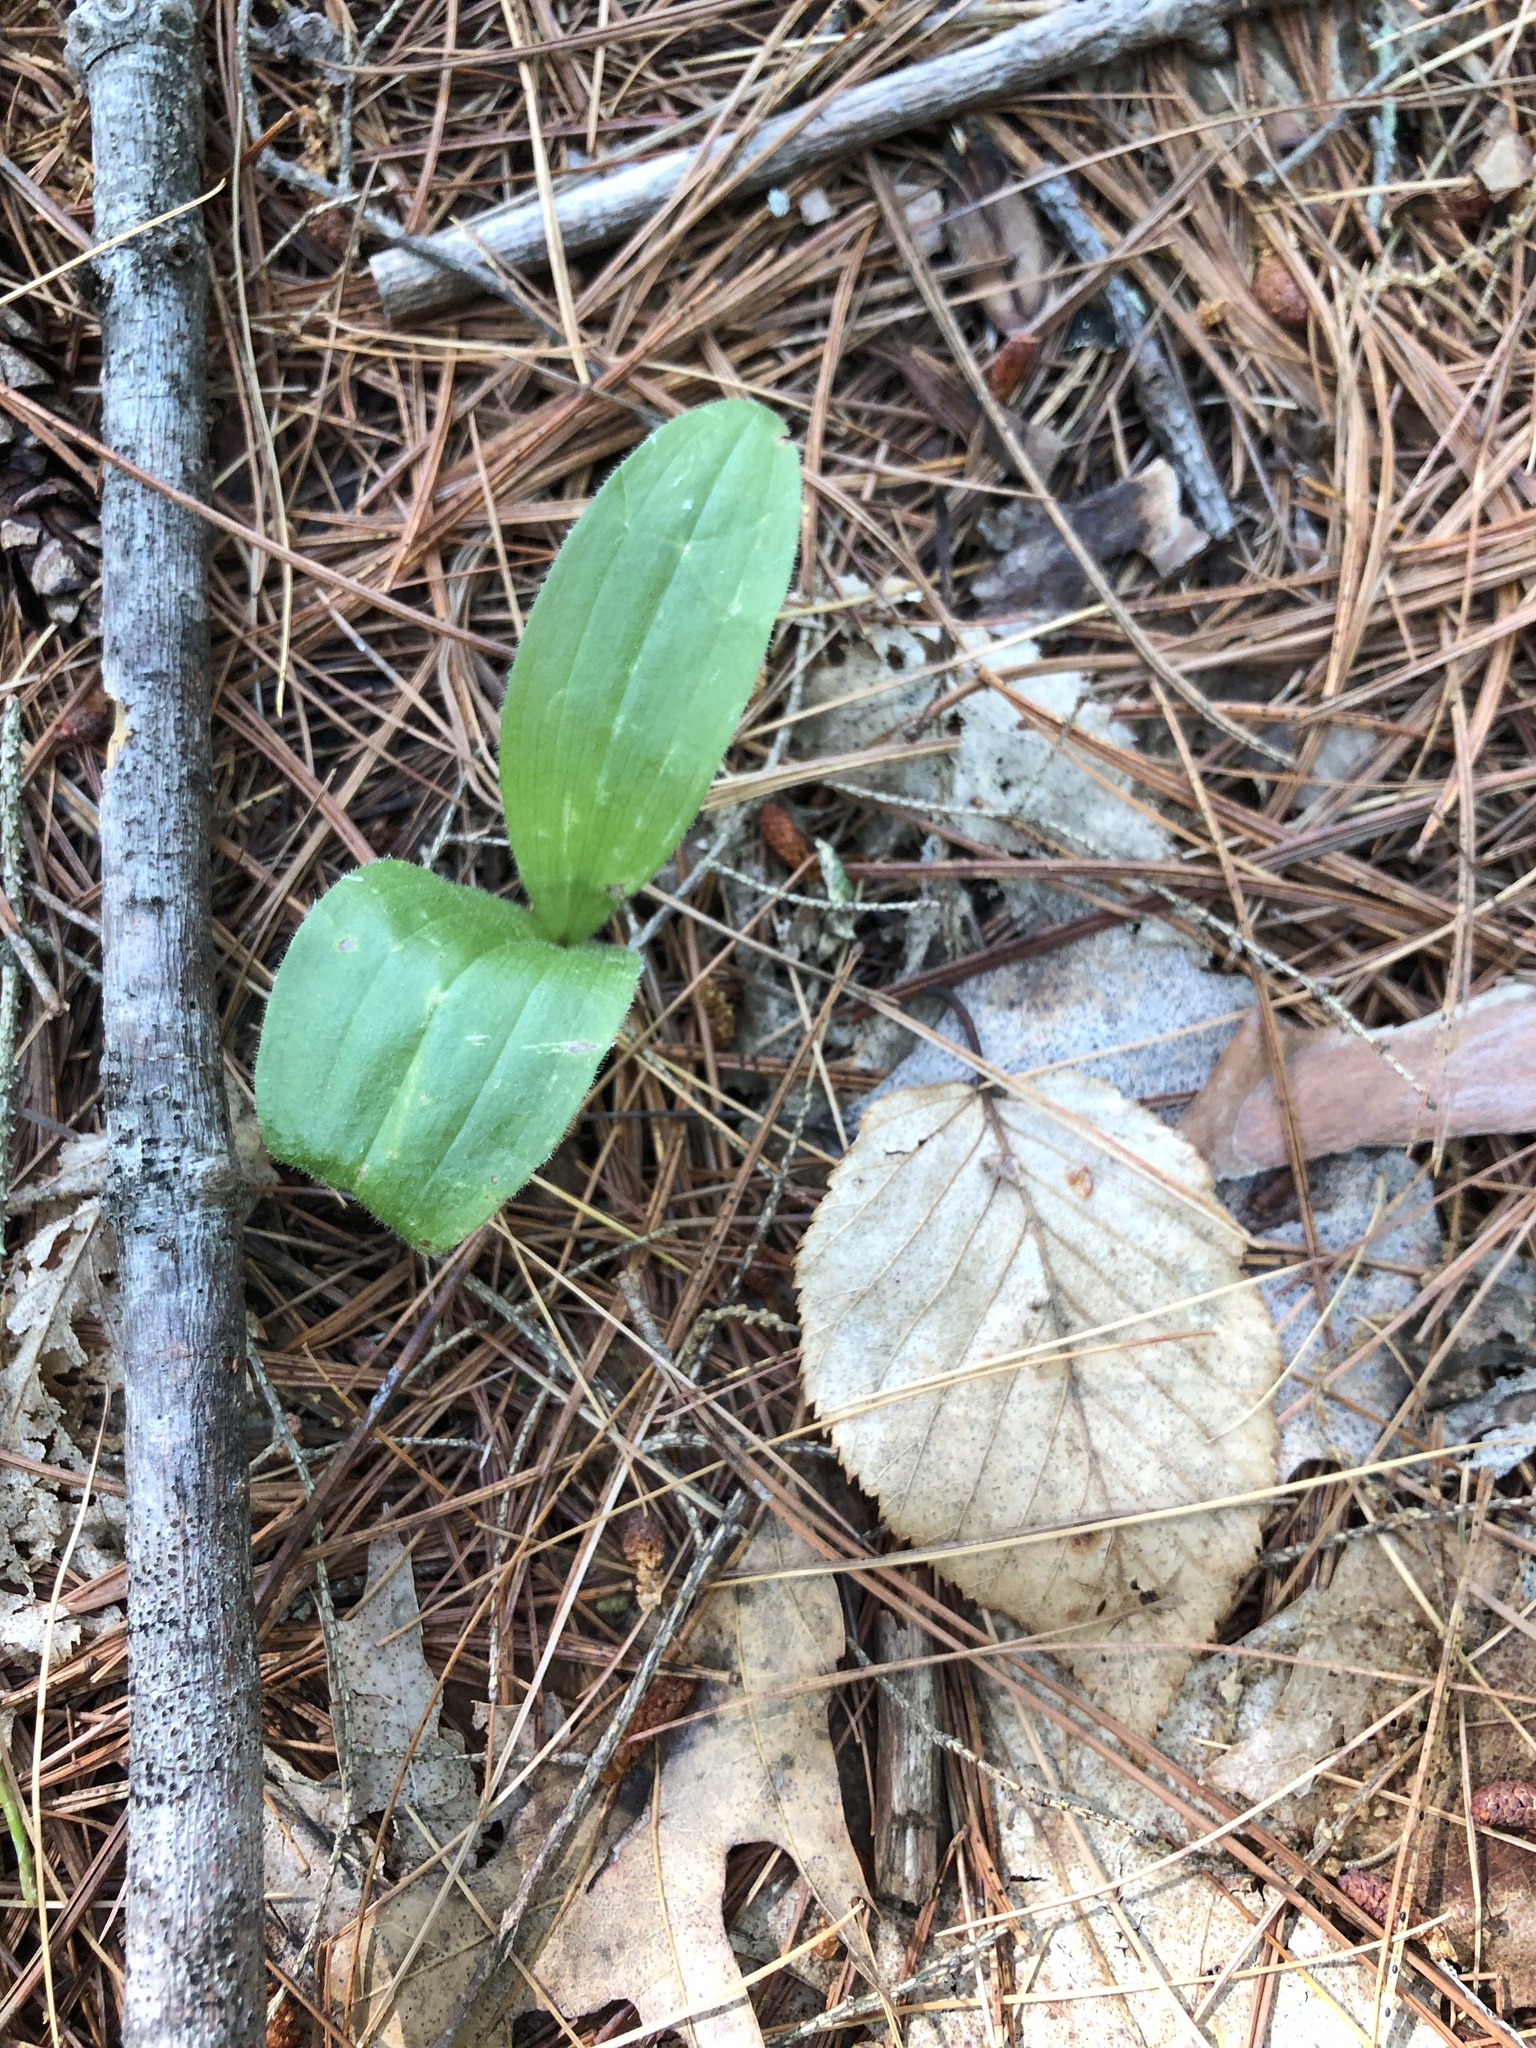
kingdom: Plantae
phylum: Tracheophyta
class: Liliopsida
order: Asparagales
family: Orchidaceae
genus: Cypripedium
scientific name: Cypripedium acaule
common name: Pink lady's-slipper
